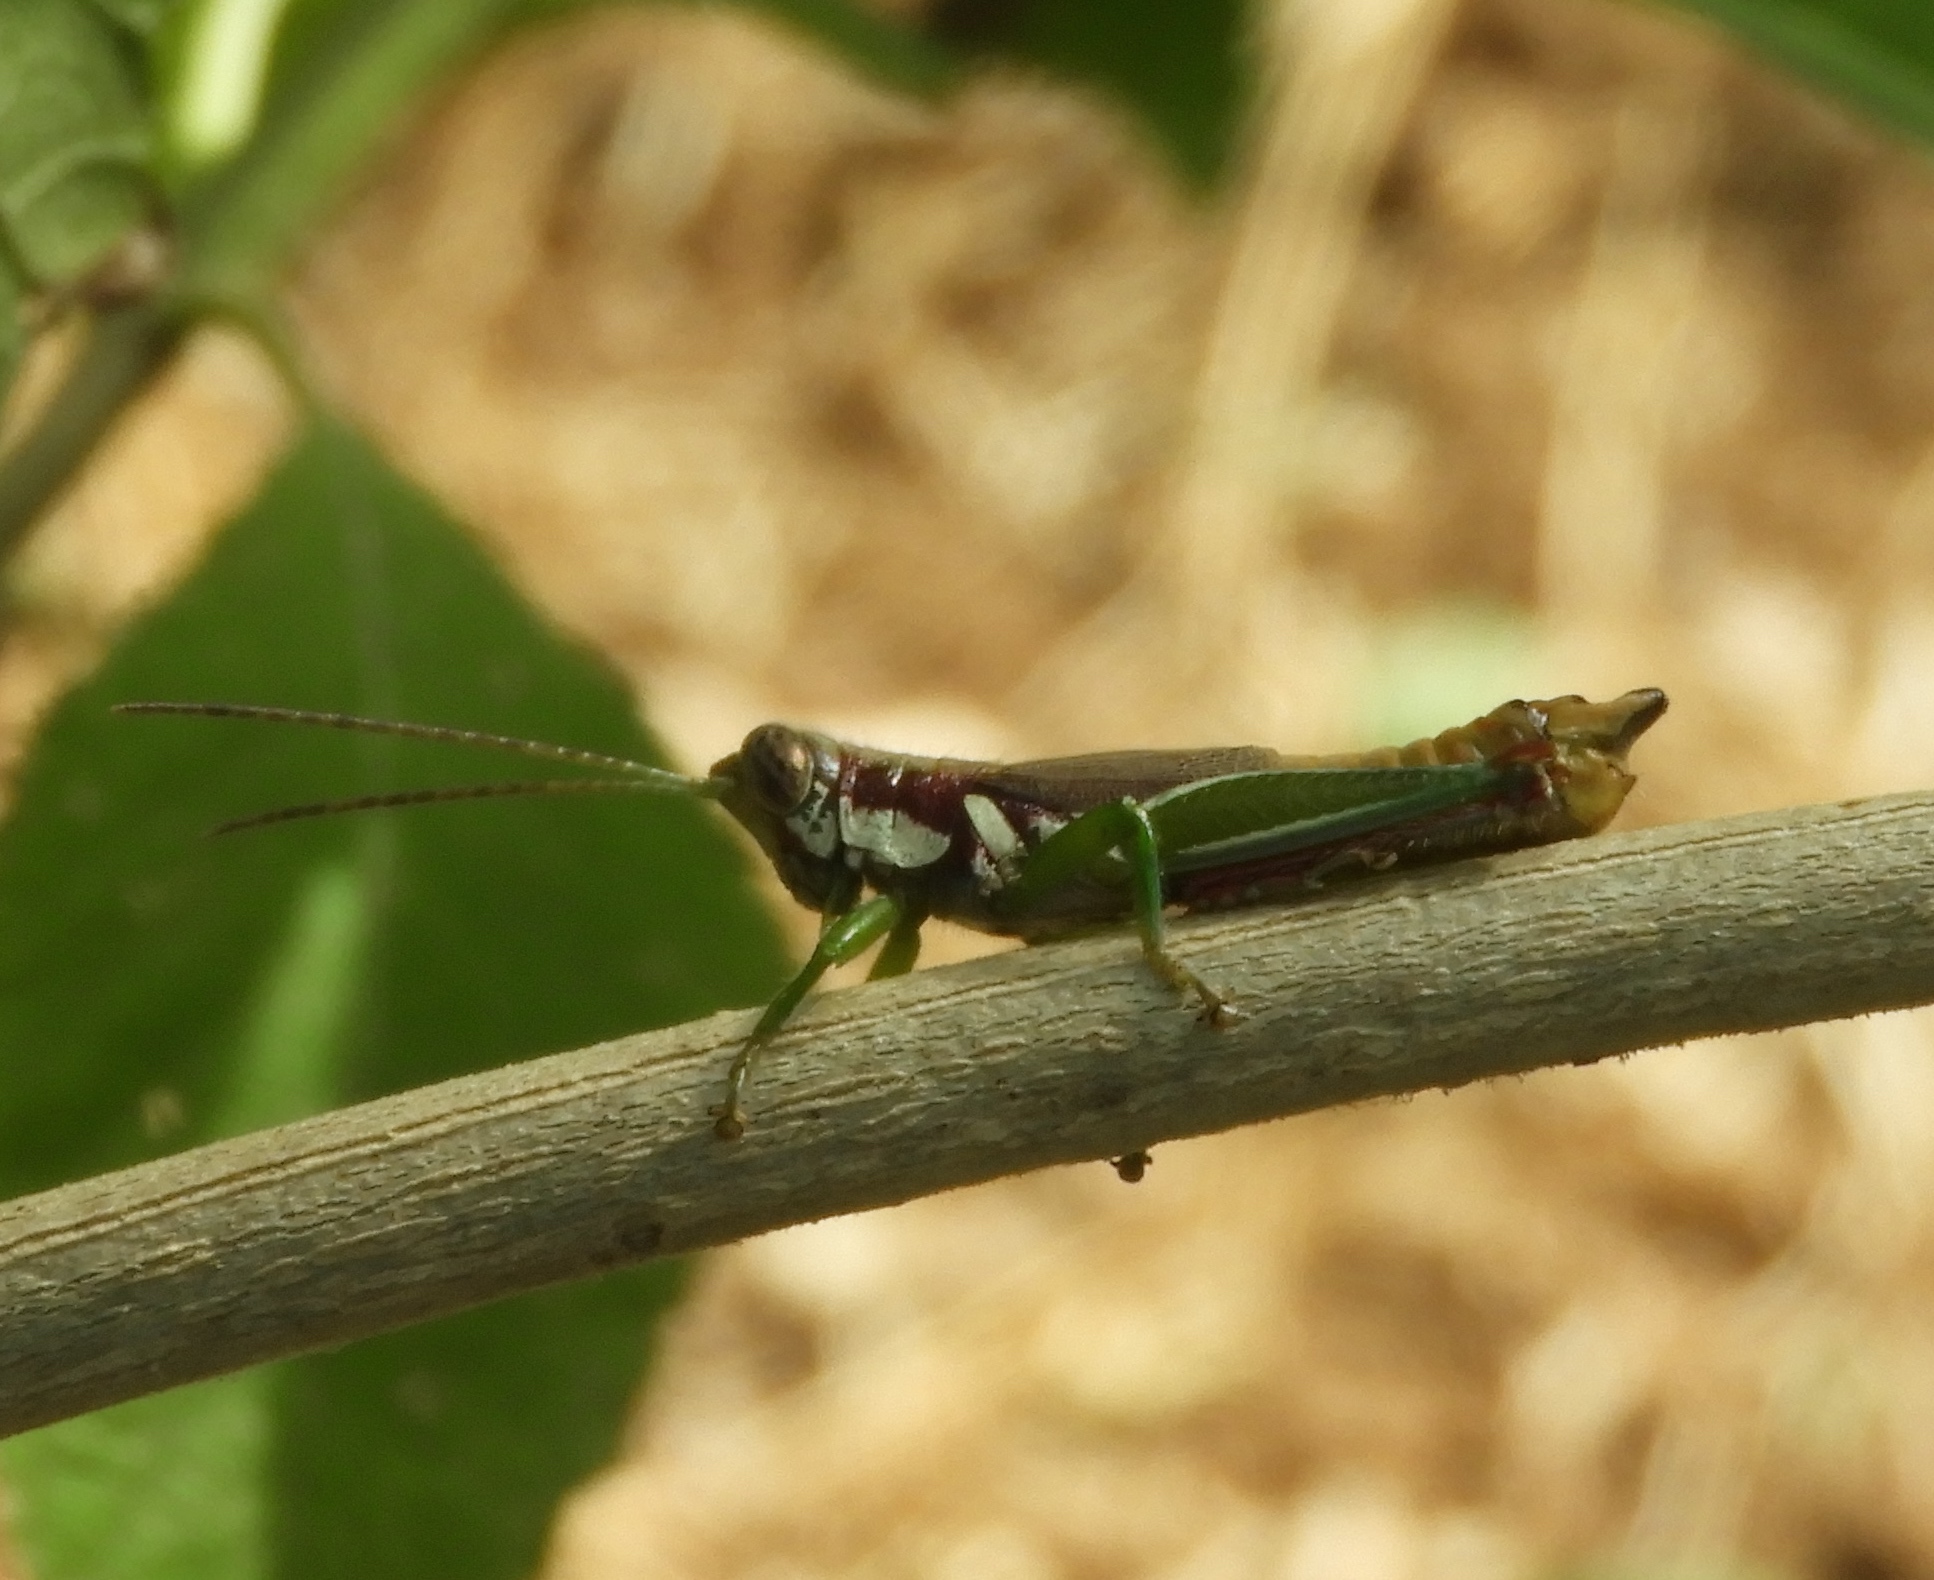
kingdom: Animalia
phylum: Arthropoda
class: Insecta
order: Orthoptera
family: Acrididae
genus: Proctolabus
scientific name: Proctolabus cerciatus
